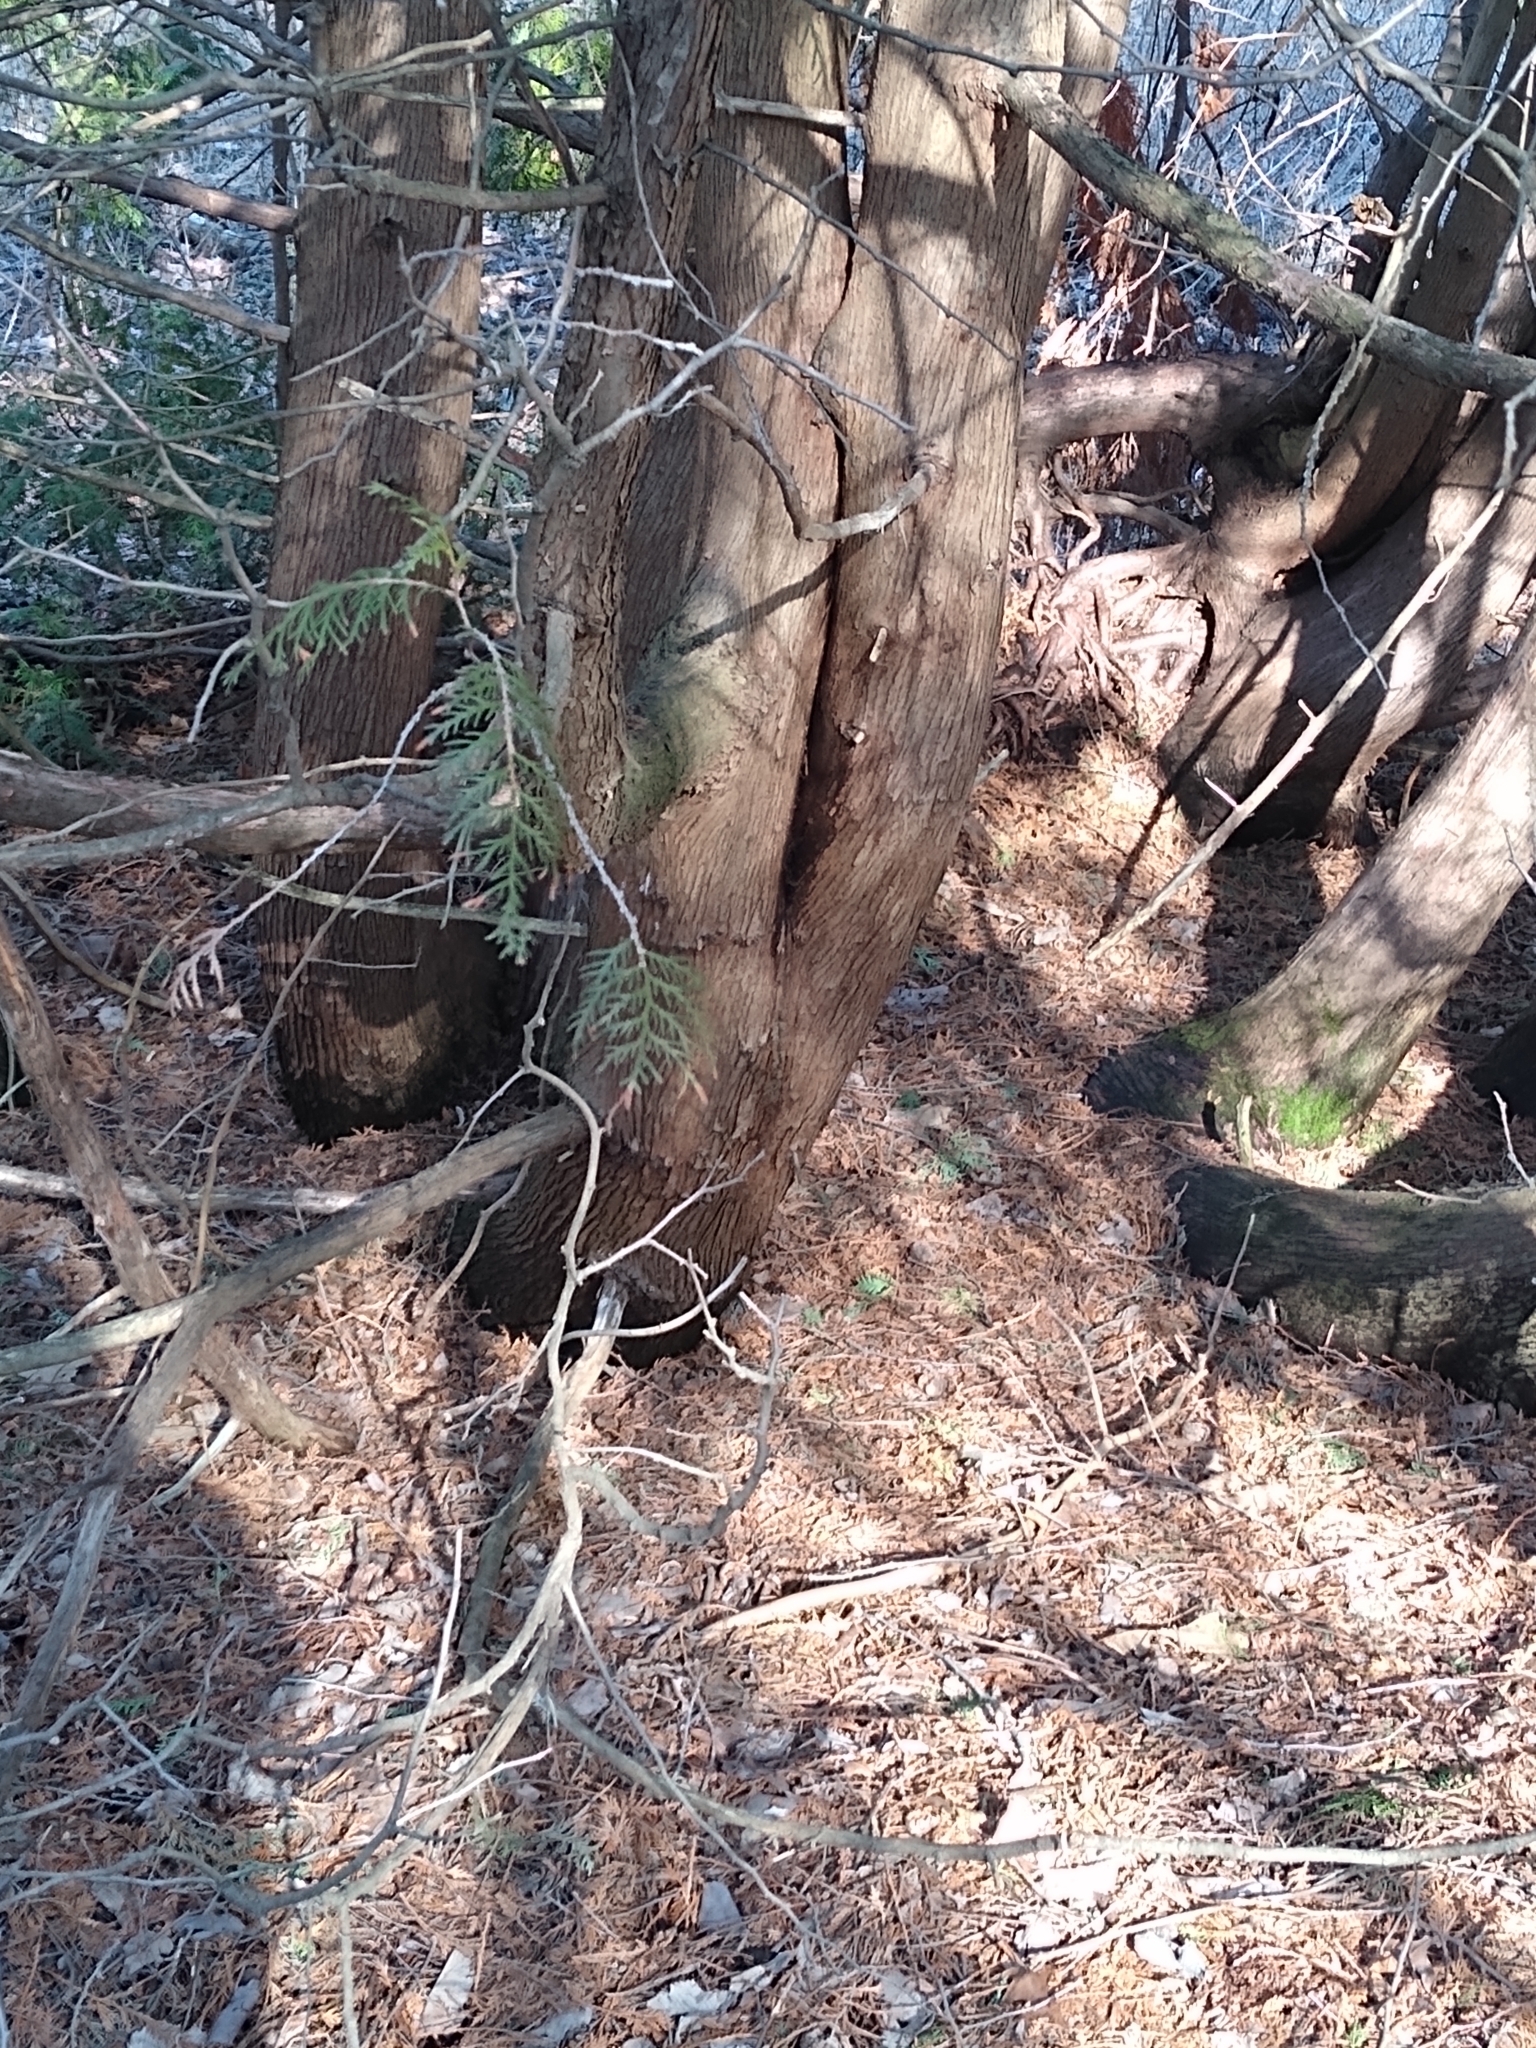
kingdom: Plantae
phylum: Tracheophyta
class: Pinopsida
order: Pinales
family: Cupressaceae
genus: Thuja
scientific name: Thuja occidentalis
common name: Northern white-cedar
